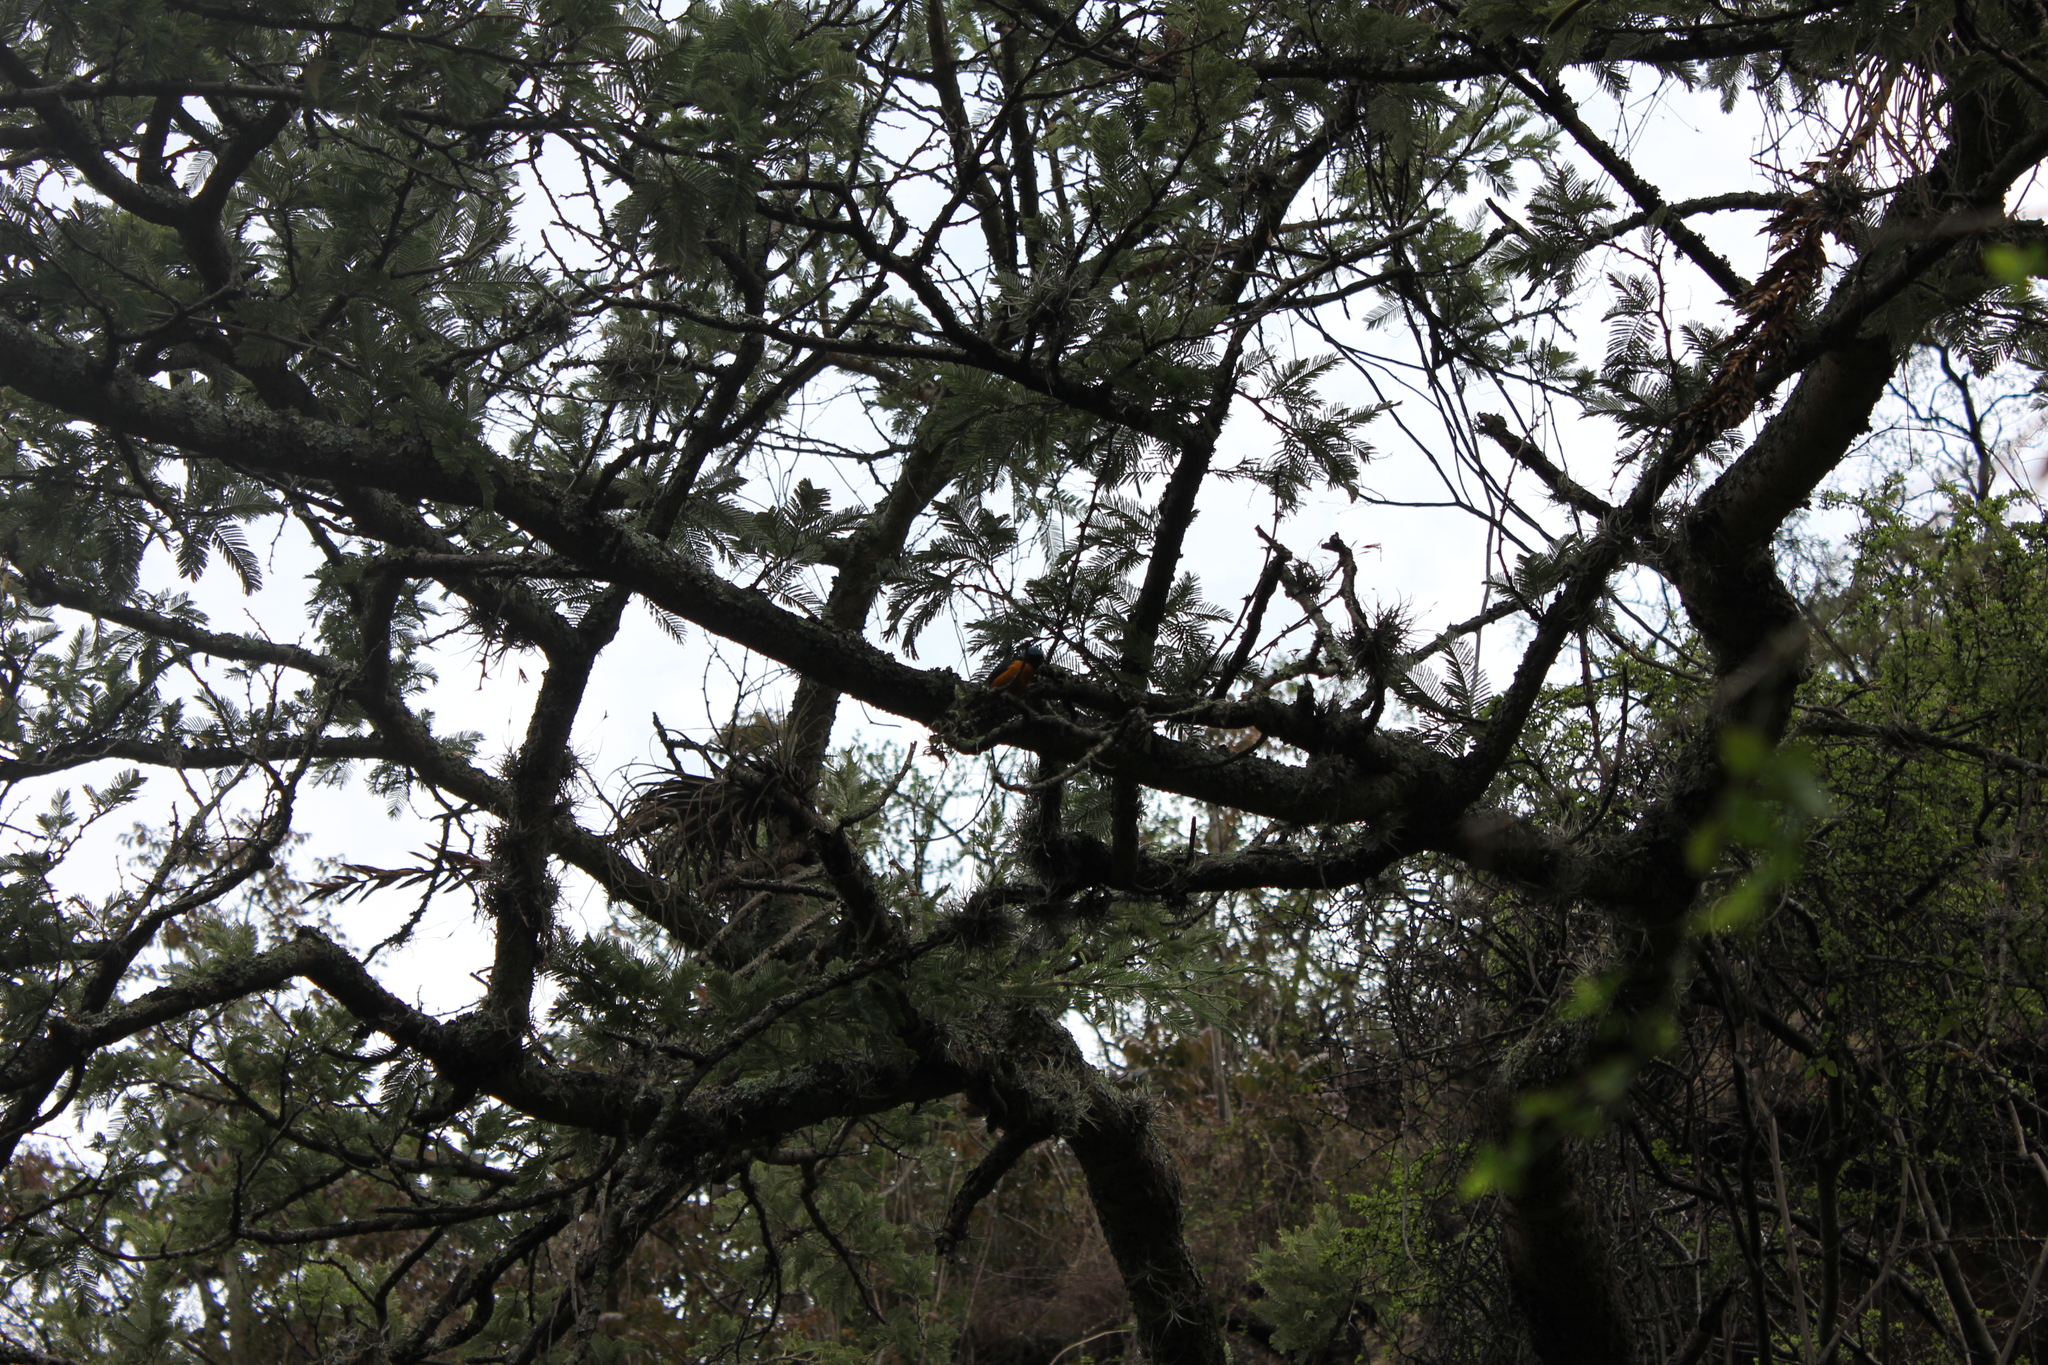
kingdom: Animalia
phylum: Chordata
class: Aves
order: Passeriformes
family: Fringillidae
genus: Euphonia
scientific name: Euphonia elegantissima
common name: Elegant euphonia
